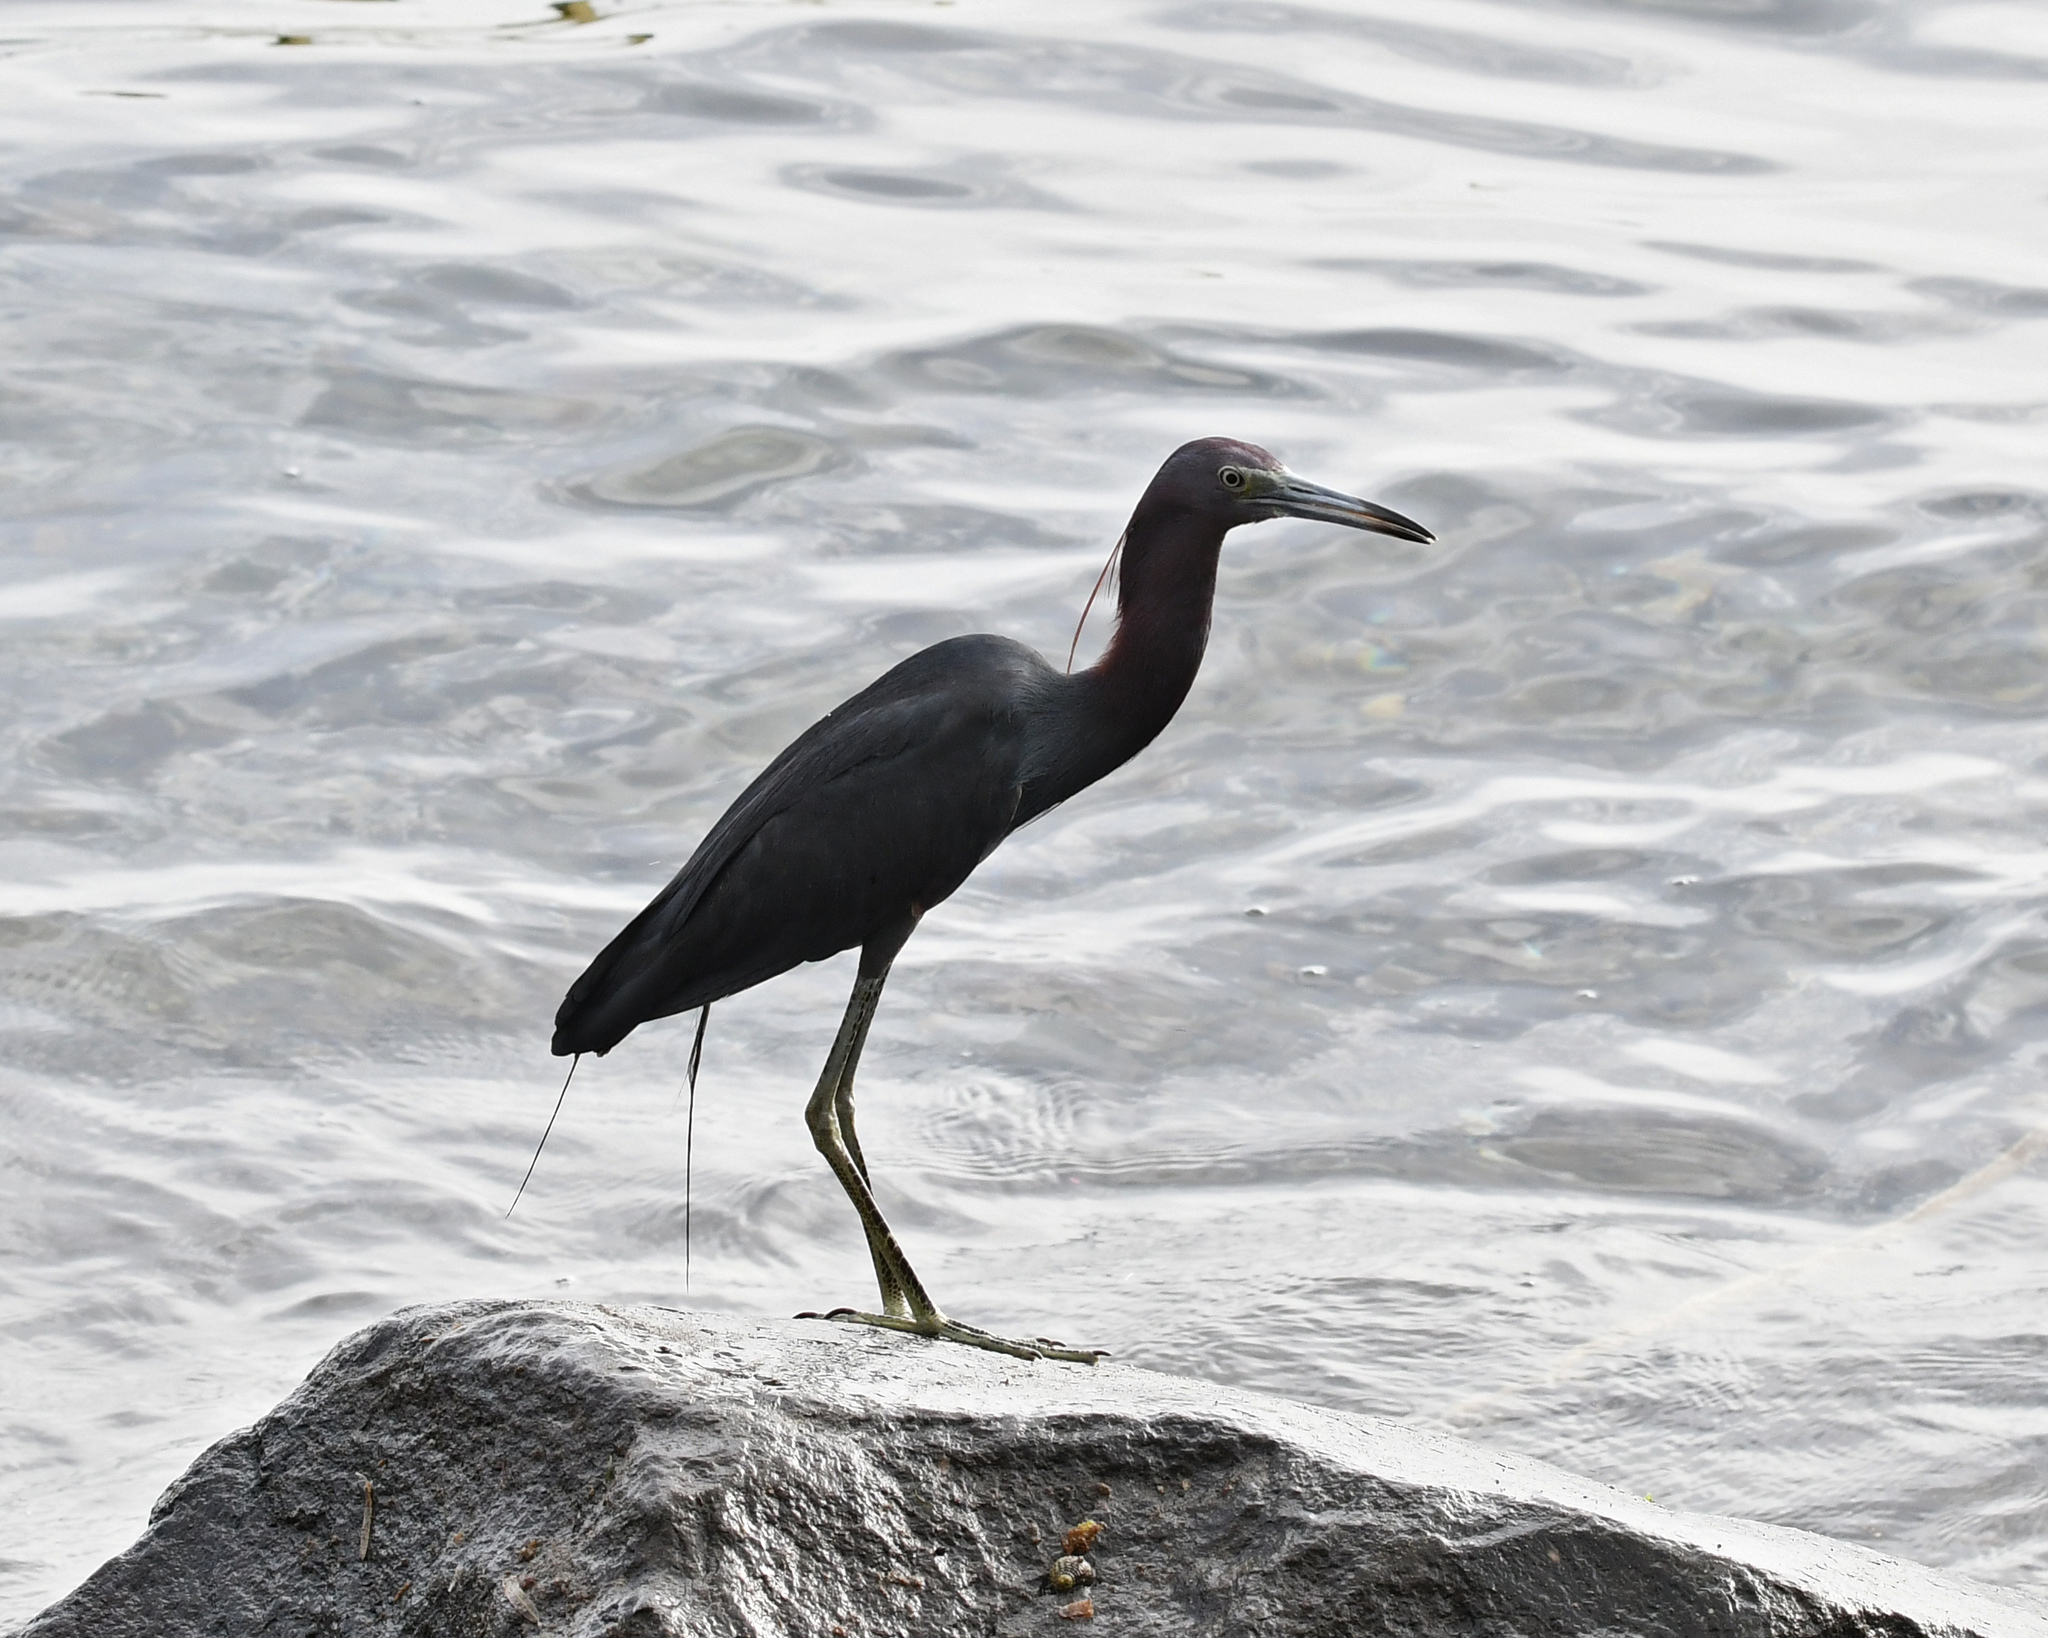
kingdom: Animalia
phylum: Chordata
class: Aves
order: Pelecaniformes
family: Ardeidae
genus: Egretta
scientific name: Egretta caerulea
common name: Little blue heron
